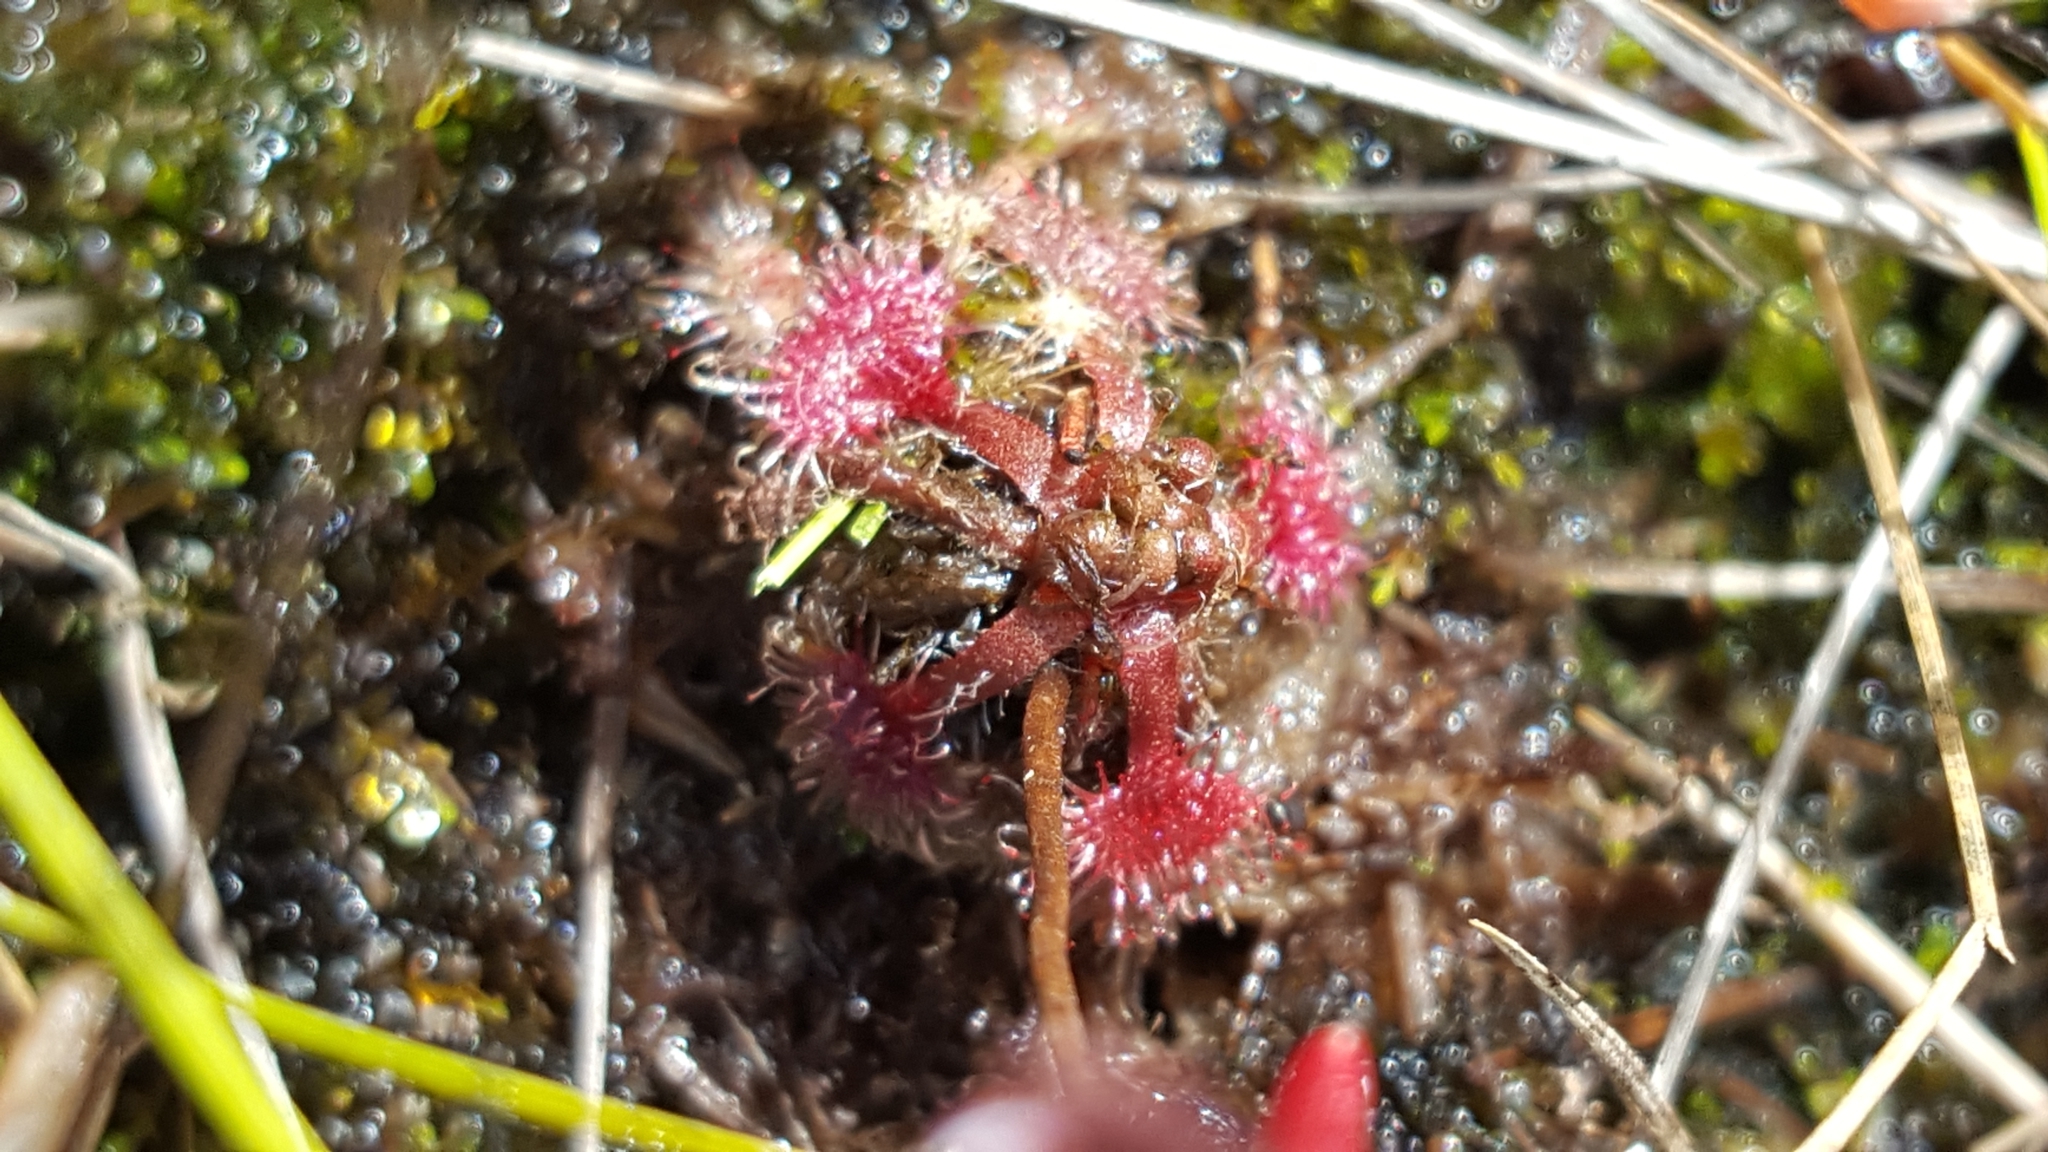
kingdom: Plantae
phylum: Tracheophyta
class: Magnoliopsida
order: Caryophyllales
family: Droseraceae
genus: Drosera
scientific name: Drosera rotundifolia
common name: Round-leaved sundew
